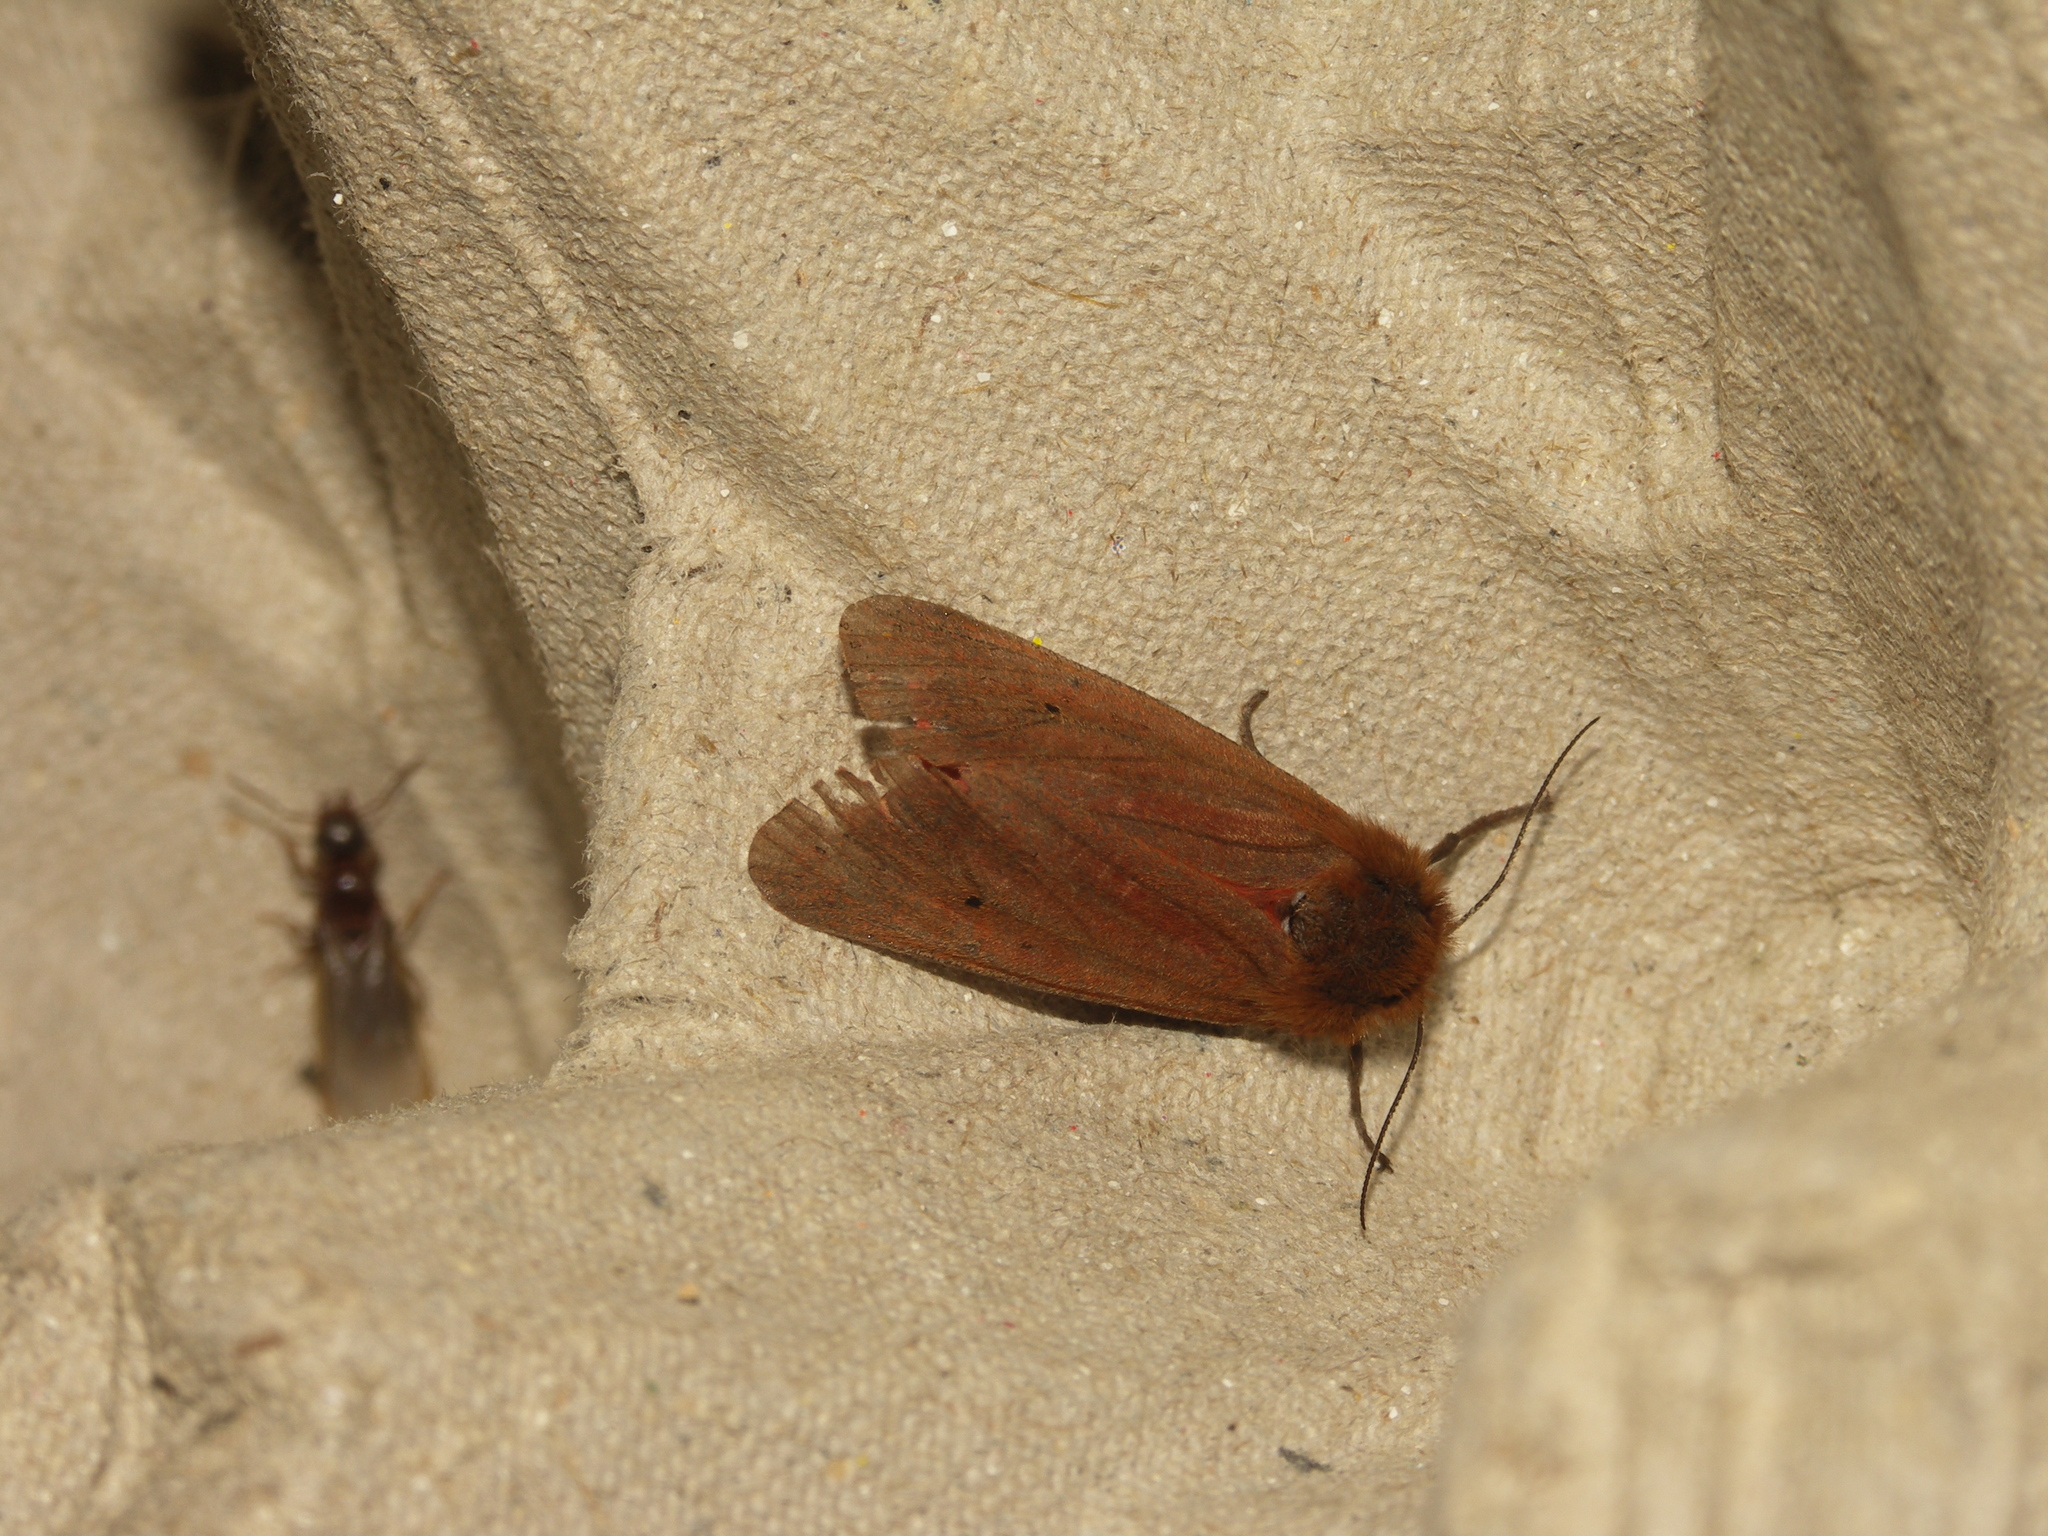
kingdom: Animalia
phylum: Arthropoda
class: Insecta
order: Lepidoptera
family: Erebidae
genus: Phragmatobia
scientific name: Phragmatobia fuliginosa
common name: Ruby tiger
